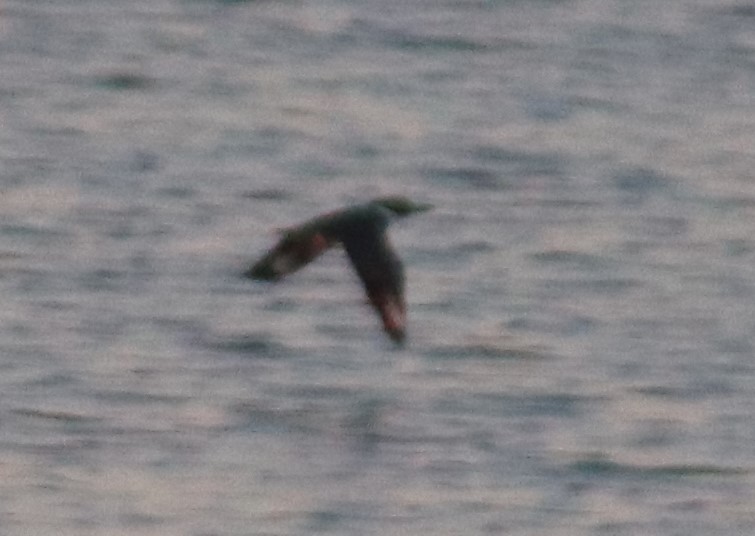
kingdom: Animalia
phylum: Chordata
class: Aves
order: Coraciiformes
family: Alcedinidae
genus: Megaceryle
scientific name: Megaceryle alcyon
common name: Belted kingfisher
